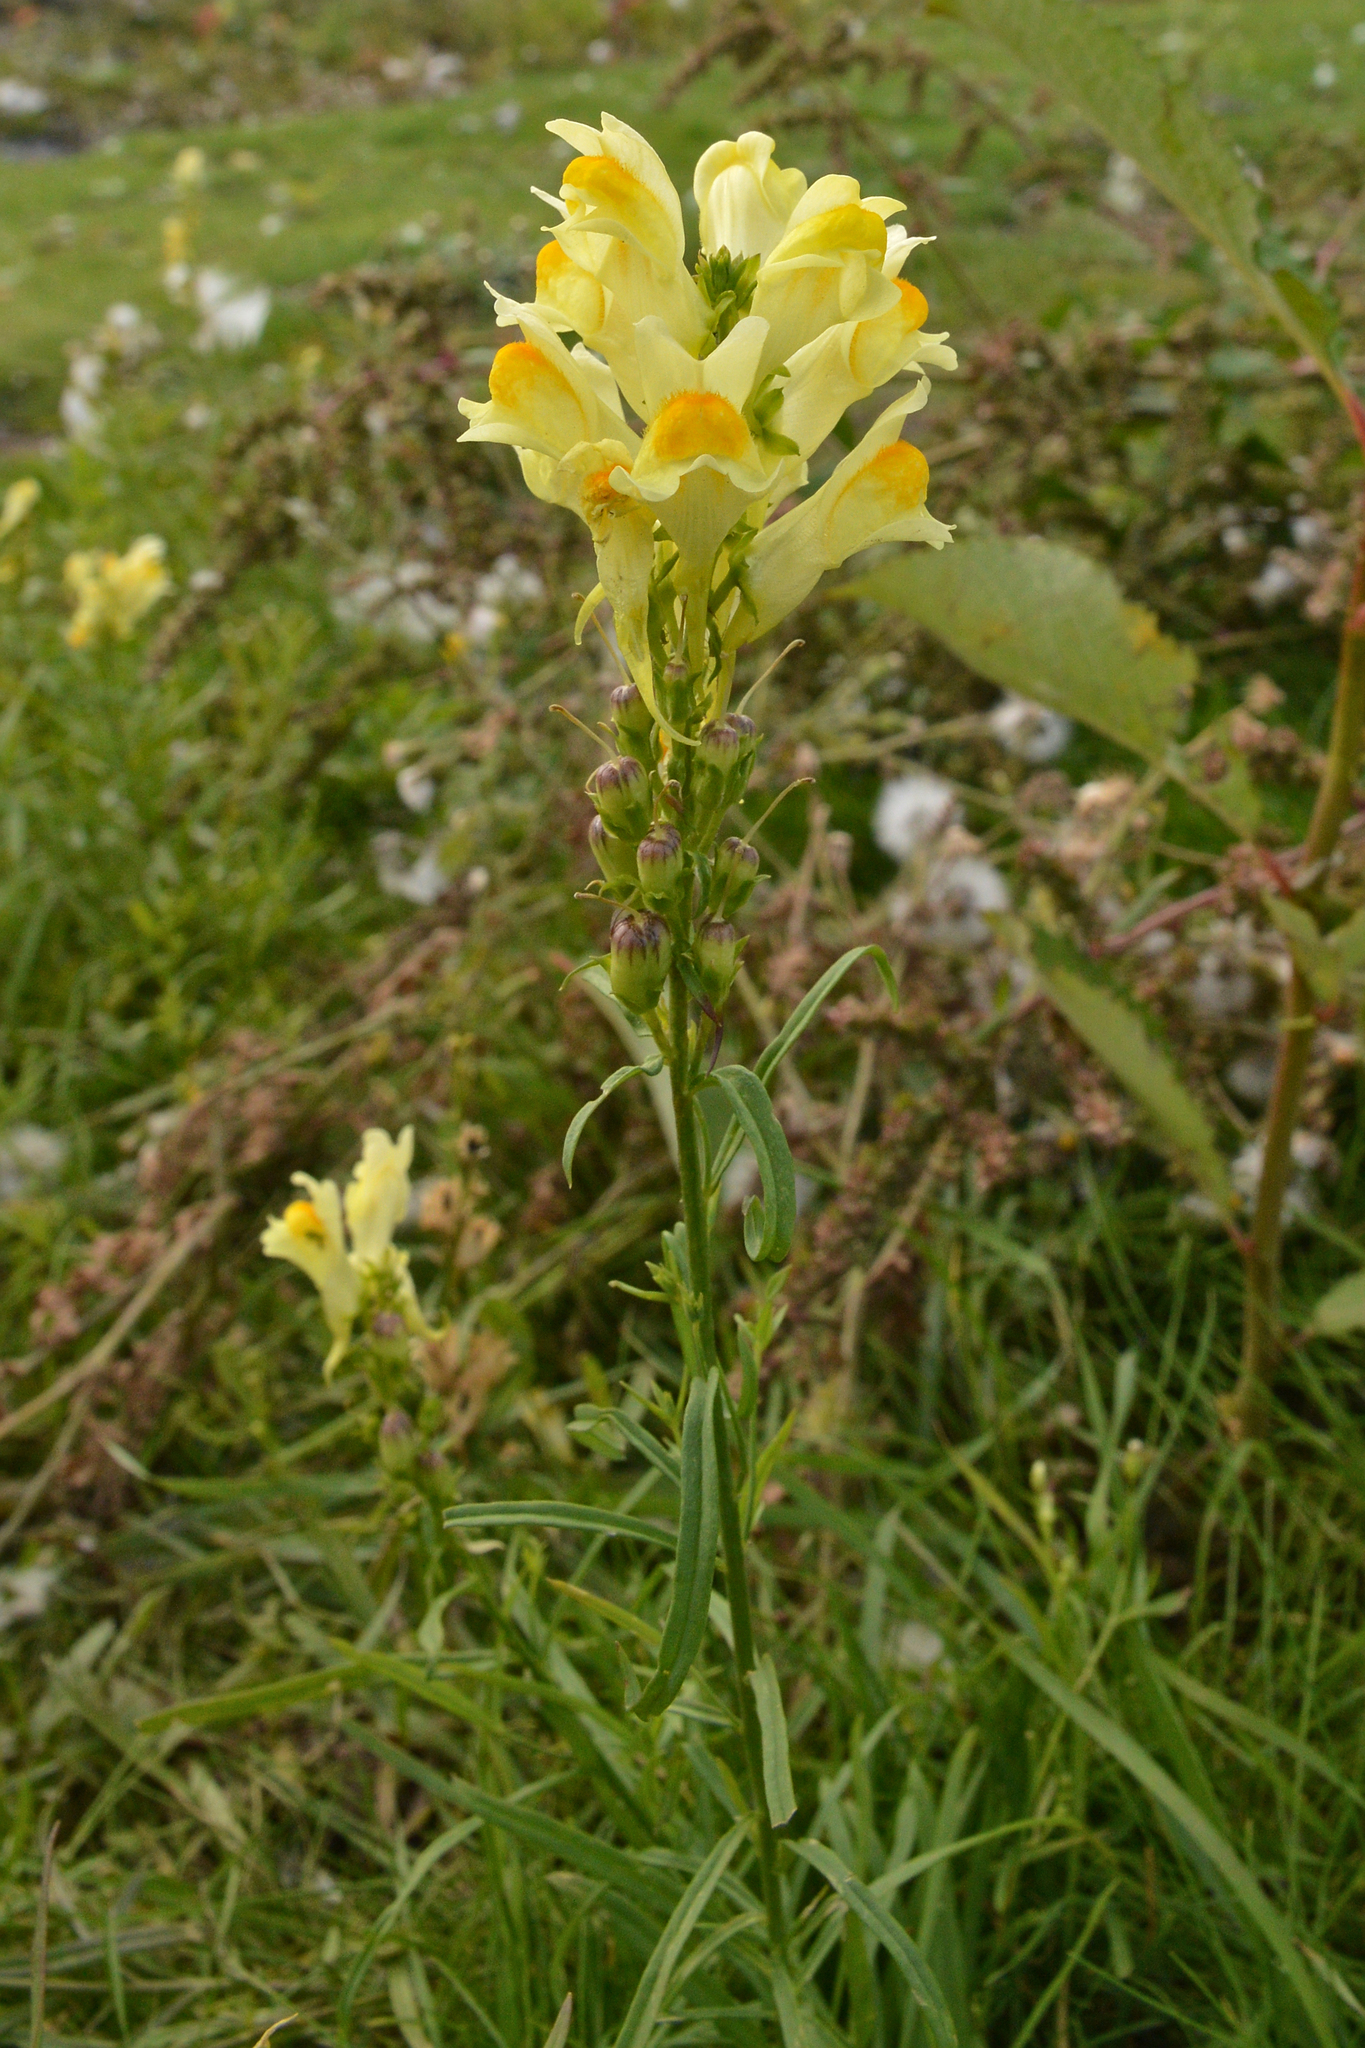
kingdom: Plantae
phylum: Tracheophyta
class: Magnoliopsida
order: Lamiales
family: Plantaginaceae
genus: Linaria
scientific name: Linaria vulgaris
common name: Butter and eggs
